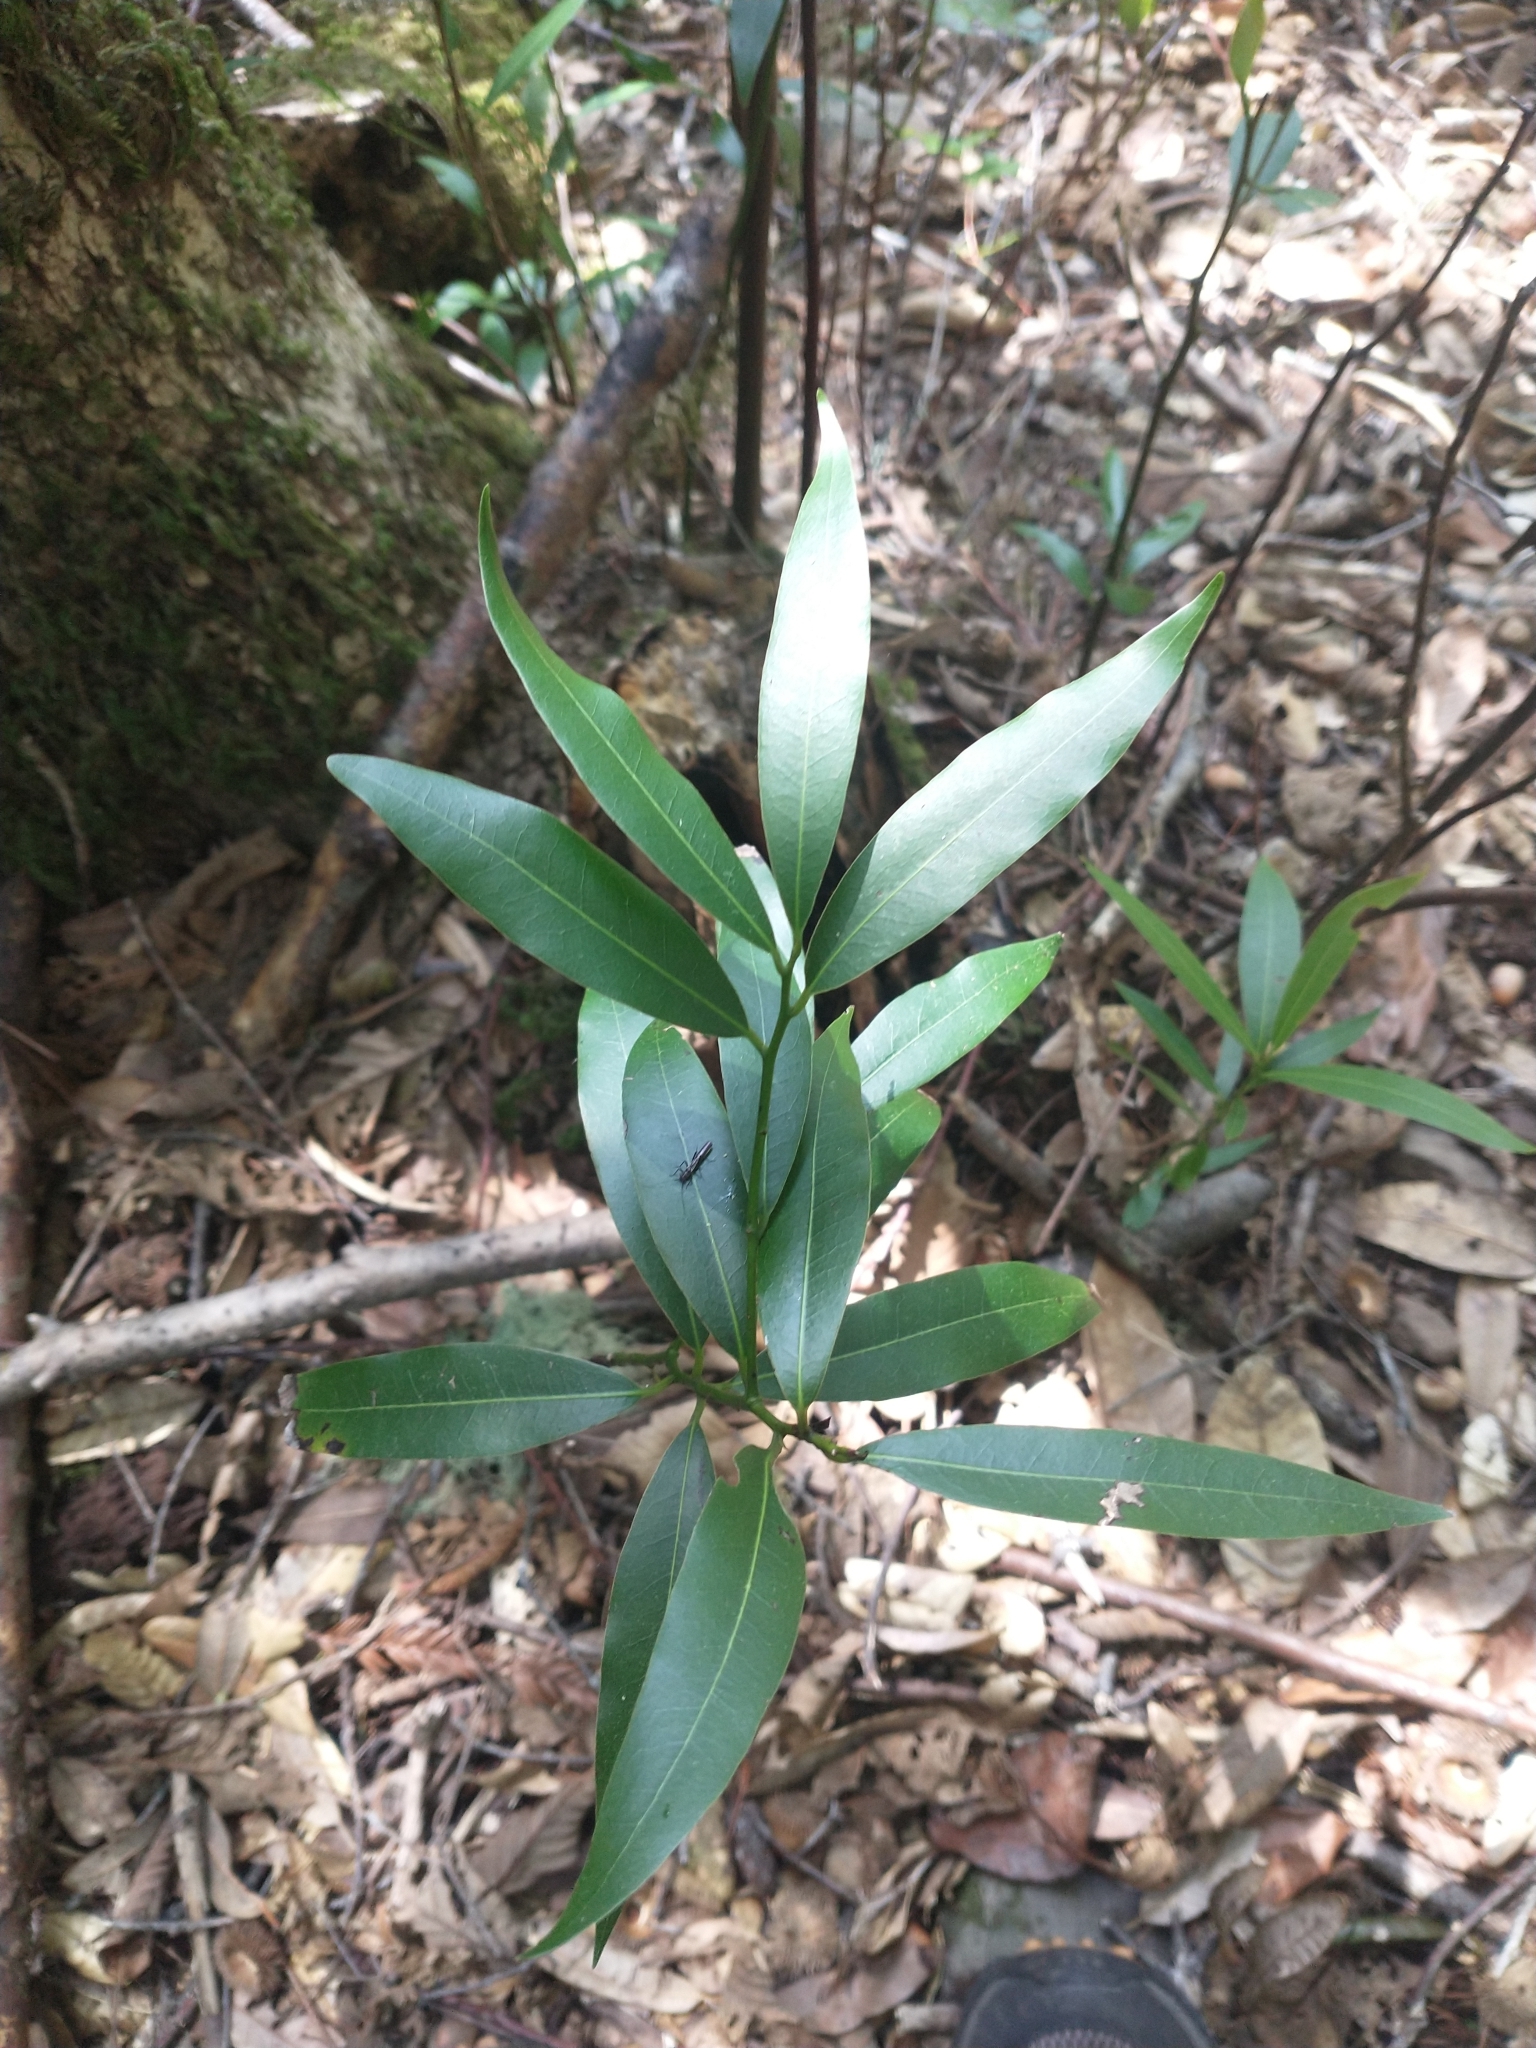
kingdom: Plantae
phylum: Tracheophyta
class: Magnoliopsida
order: Laurales
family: Lauraceae
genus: Umbellularia
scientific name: Umbellularia californica
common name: California bay
